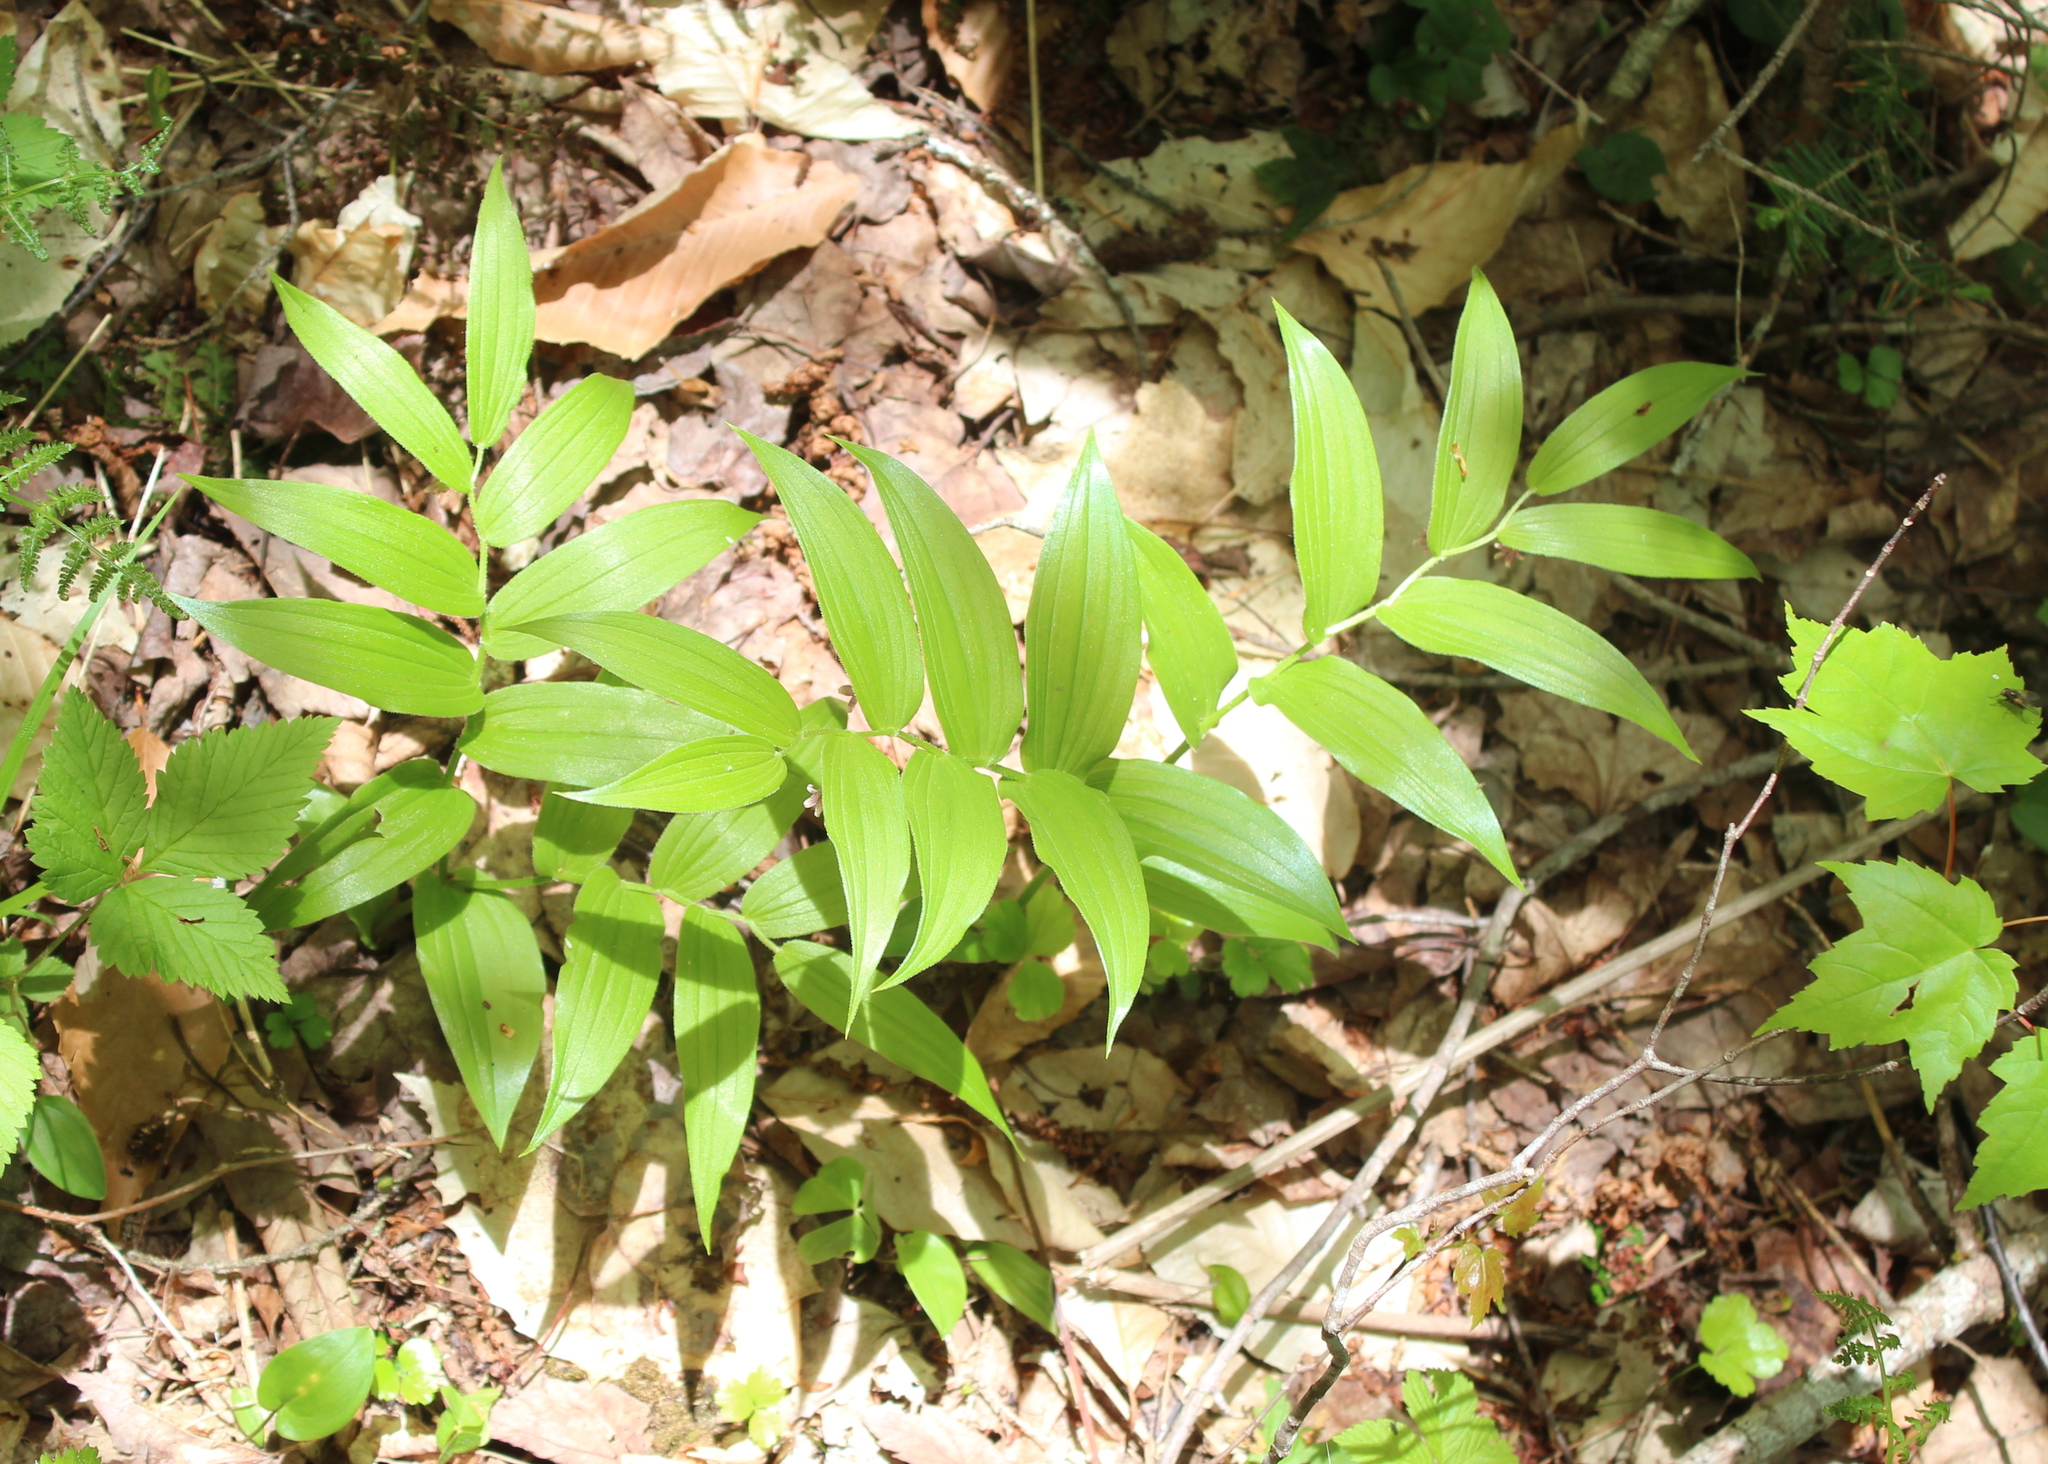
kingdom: Plantae
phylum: Tracheophyta
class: Liliopsida
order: Liliales
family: Liliaceae
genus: Streptopus
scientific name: Streptopus lanceolatus
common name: Rose mandarin
